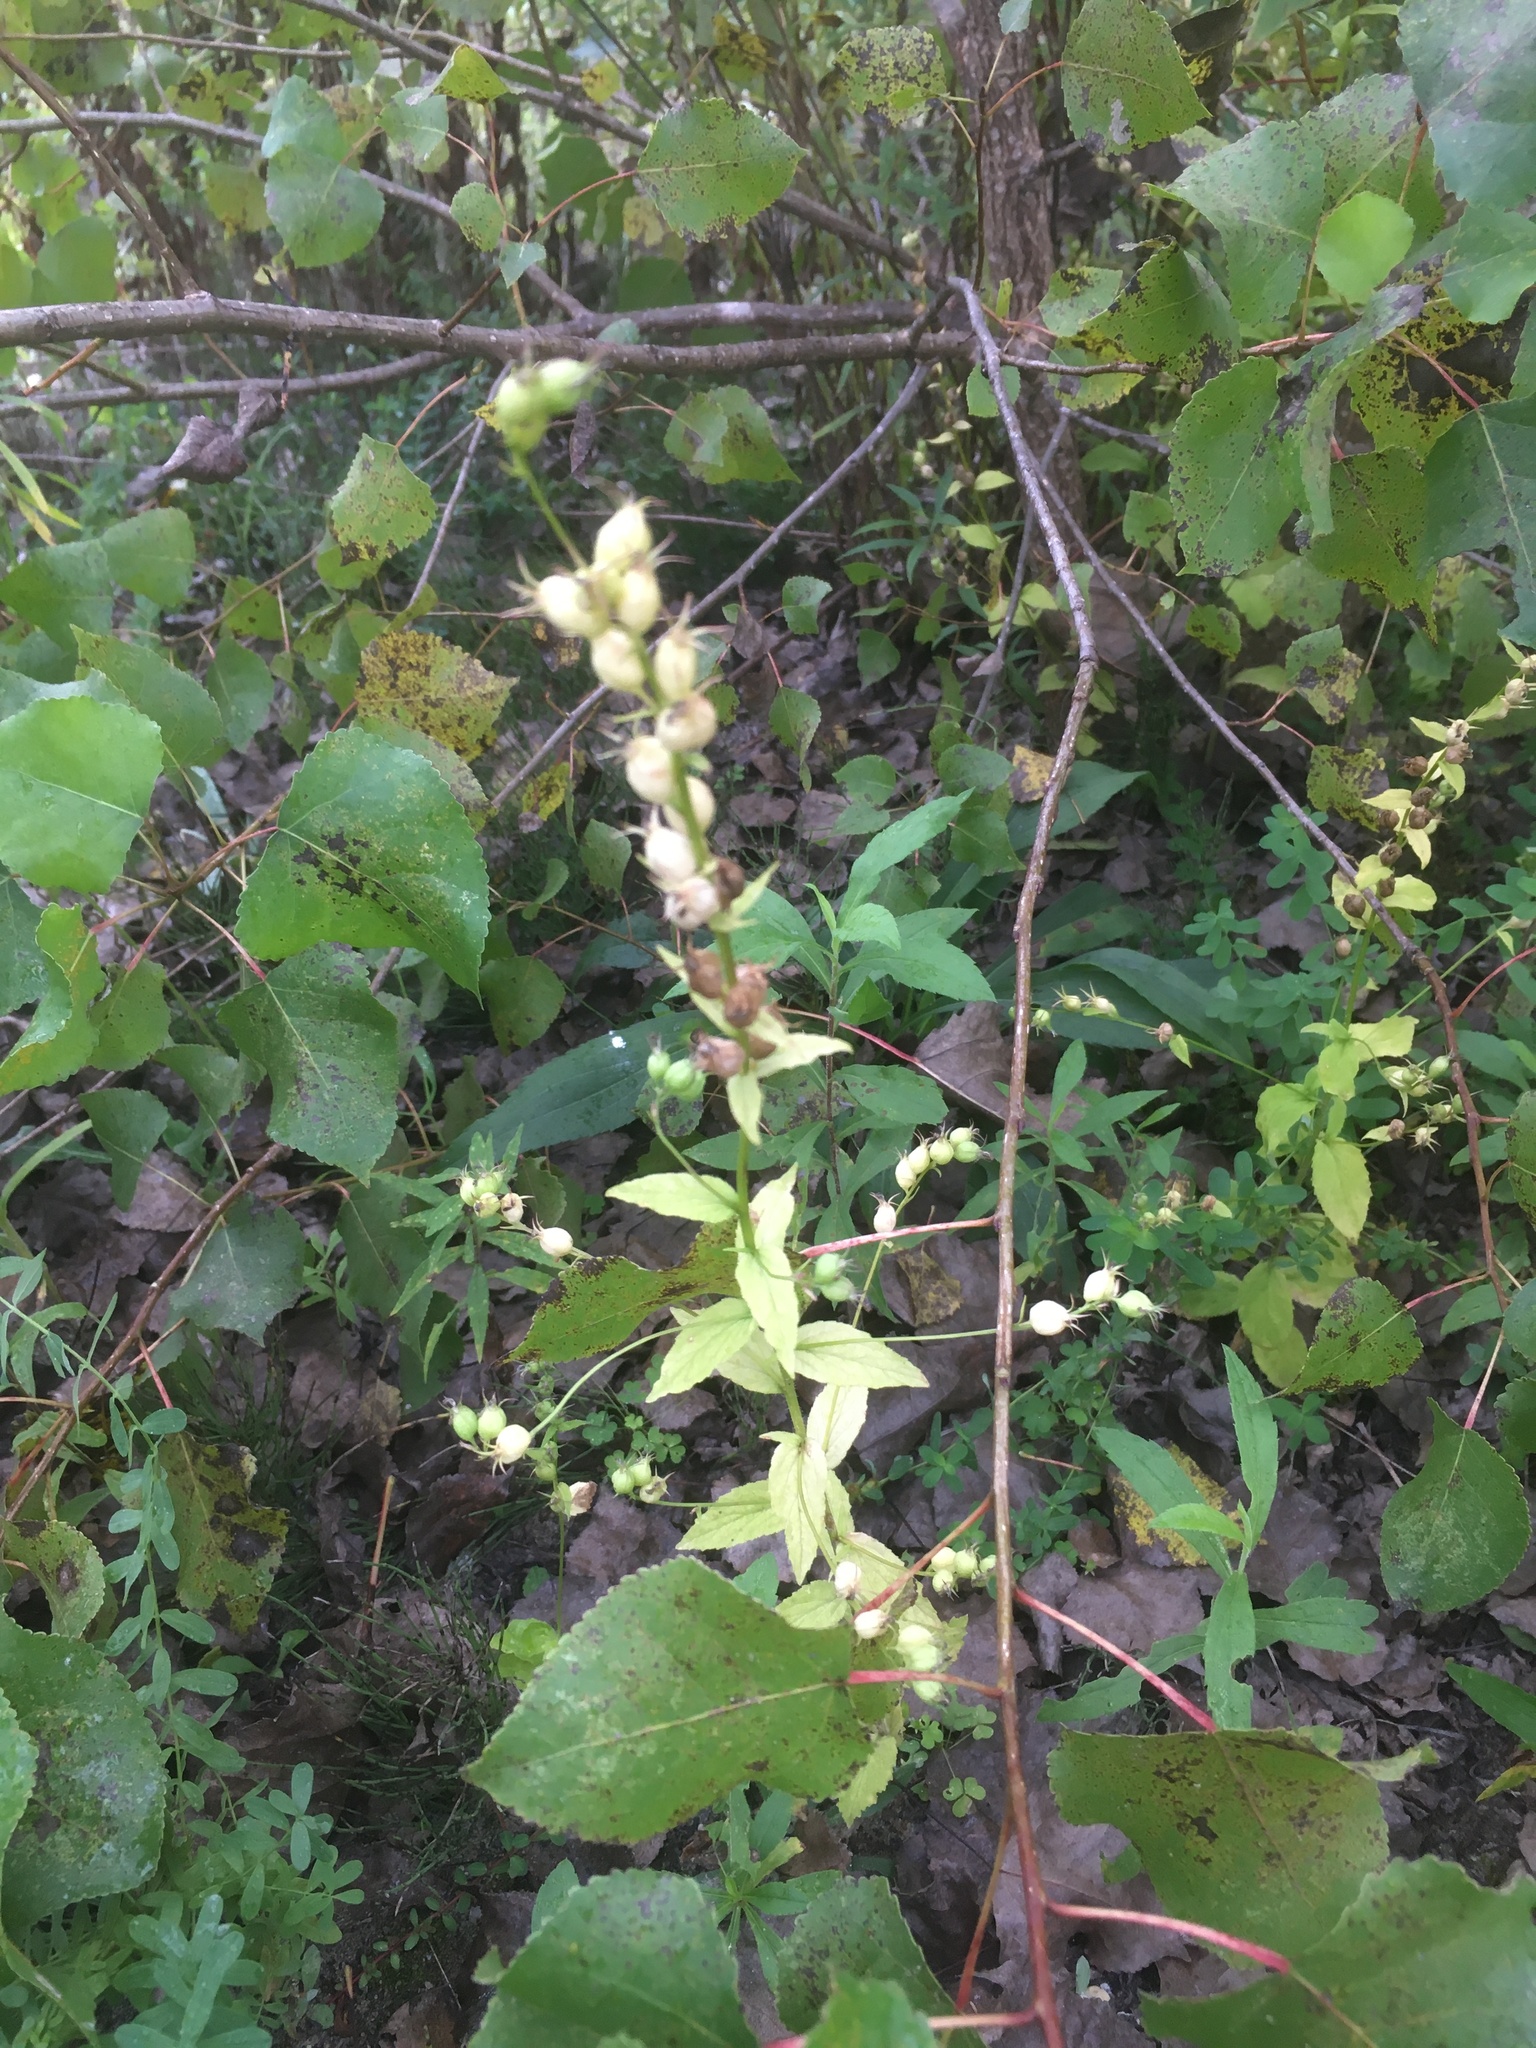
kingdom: Plantae
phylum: Tracheophyta
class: Magnoliopsida
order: Asterales
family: Campanulaceae
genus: Lobelia
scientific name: Lobelia inflata
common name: Indian tobacco
